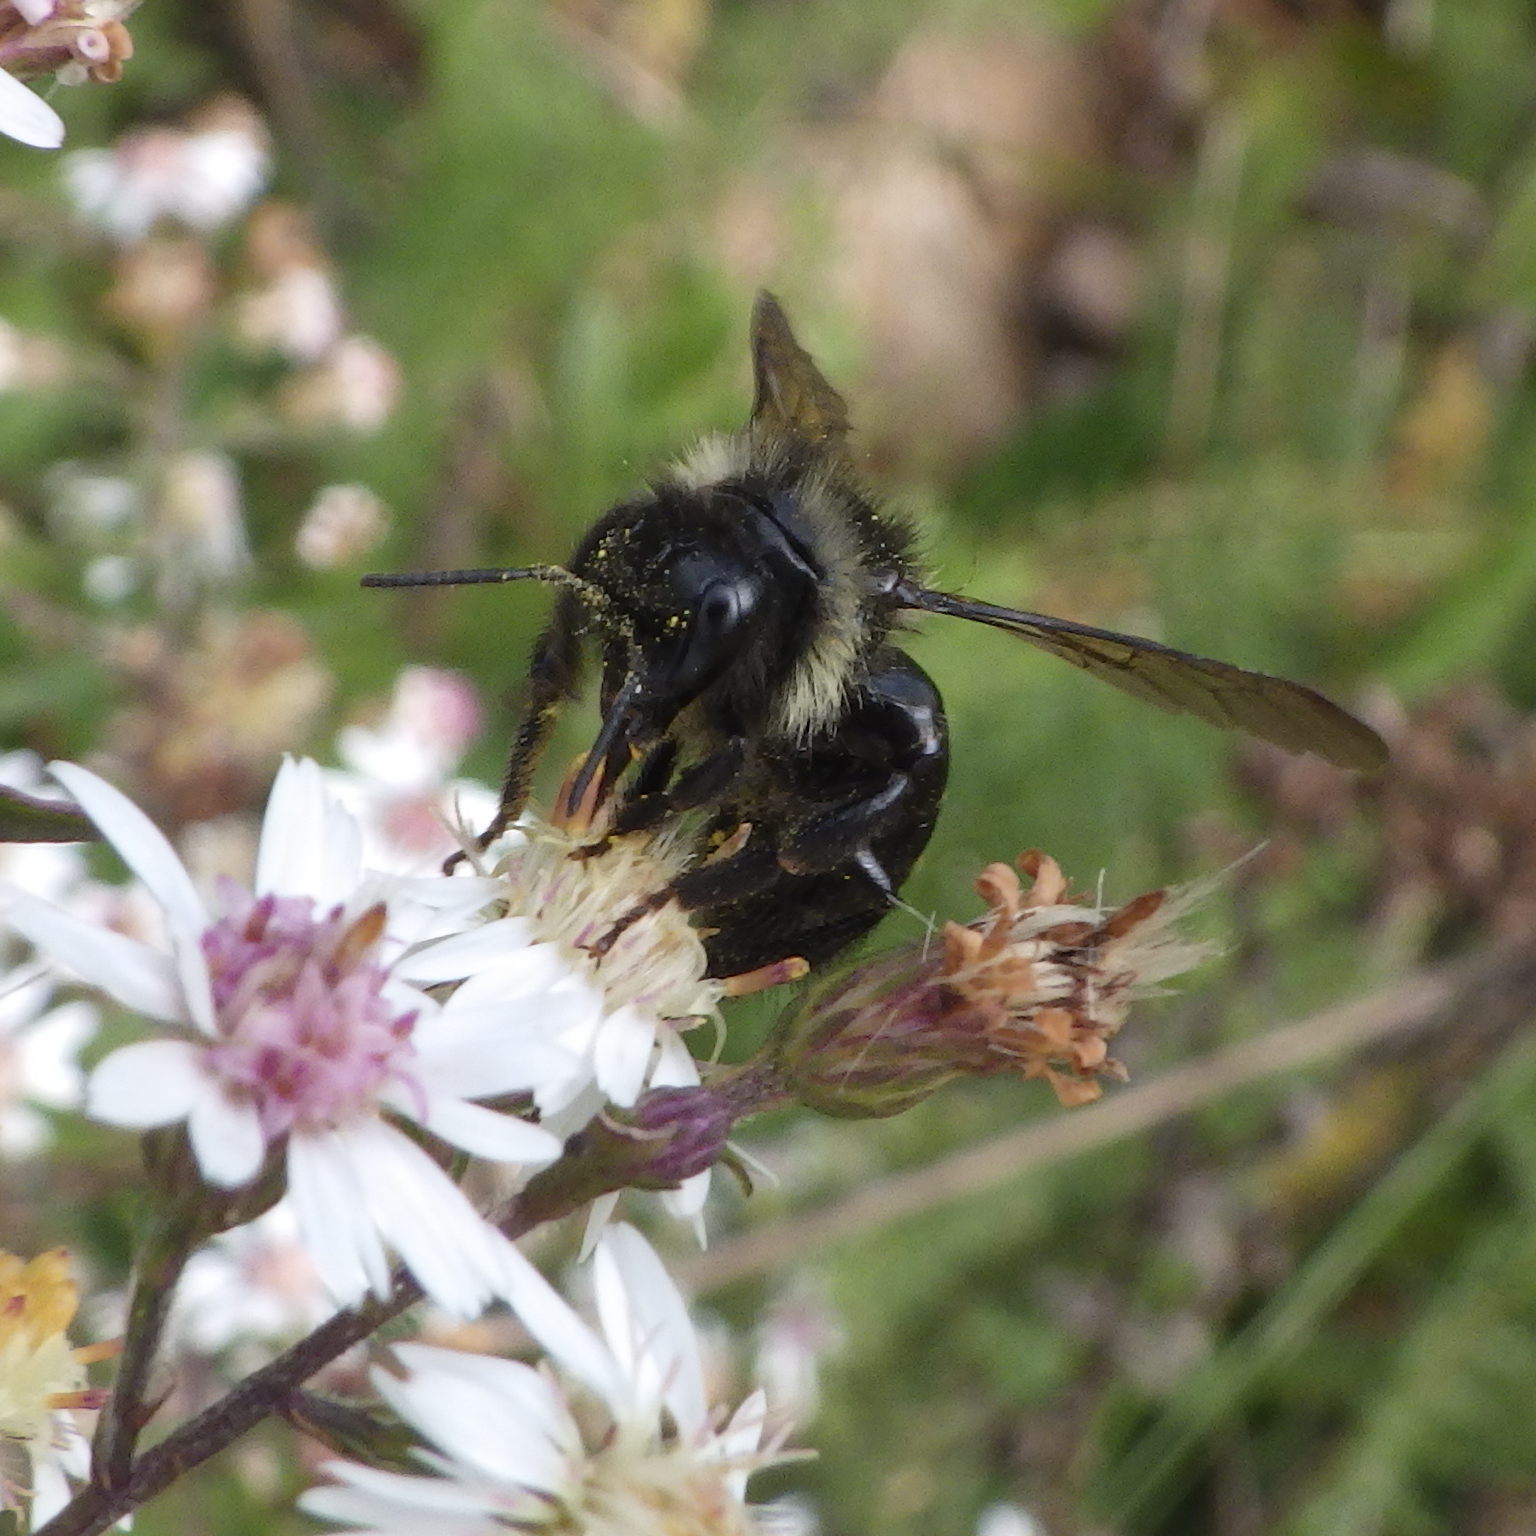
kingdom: Animalia
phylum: Arthropoda
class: Insecta
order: Hymenoptera
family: Apidae
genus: Bombus
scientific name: Bombus
